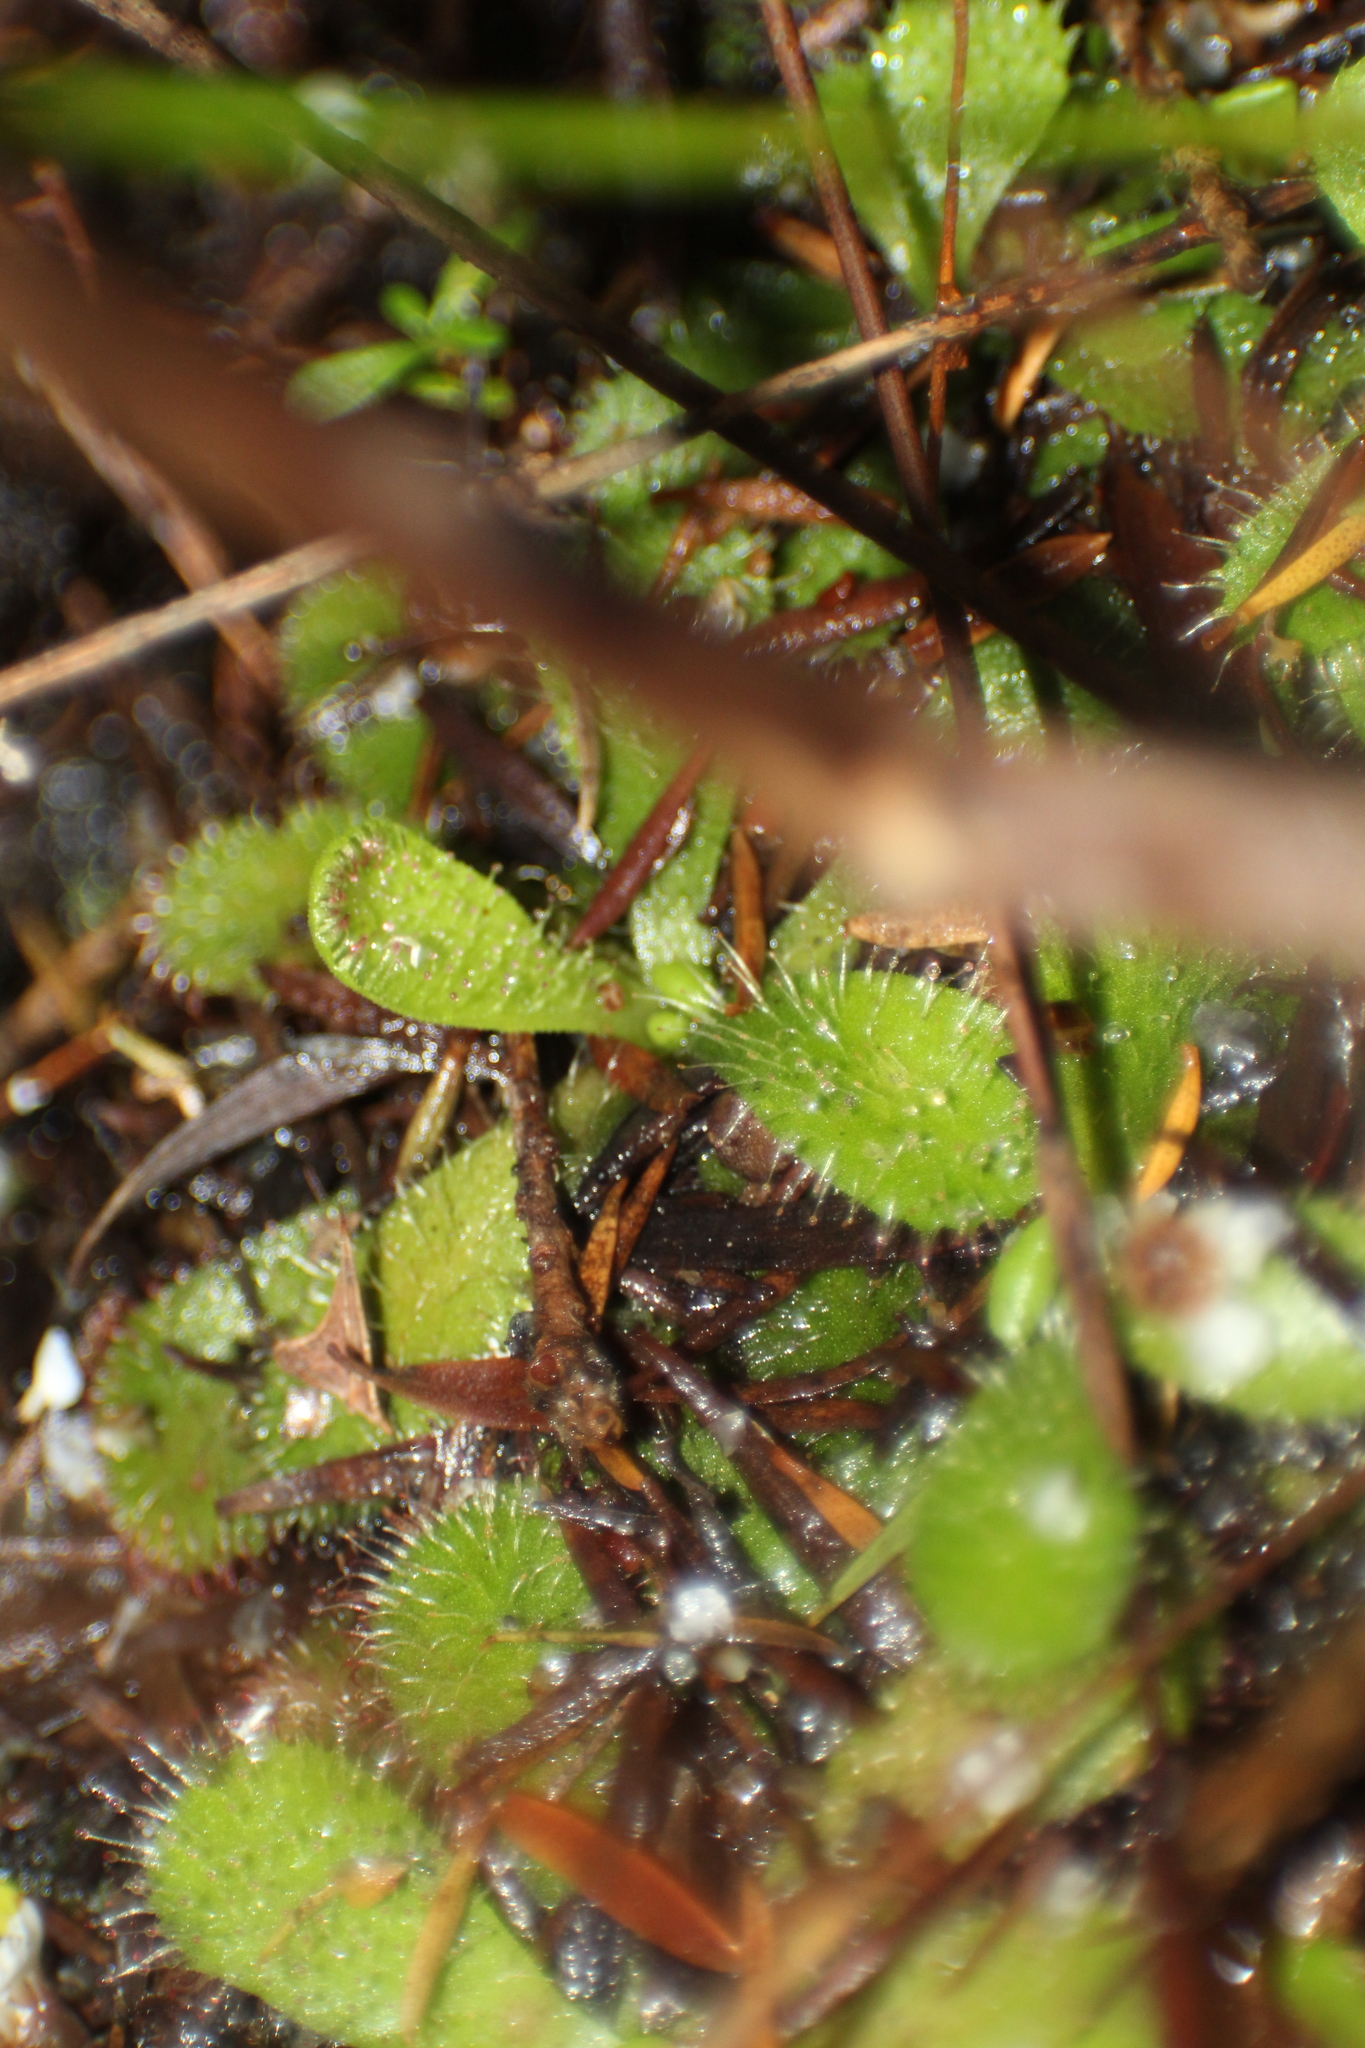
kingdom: Plantae
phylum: Tracheophyta
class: Magnoliopsida
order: Caryophyllales
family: Droseraceae
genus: Drosera
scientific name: Drosera hamiltonii
